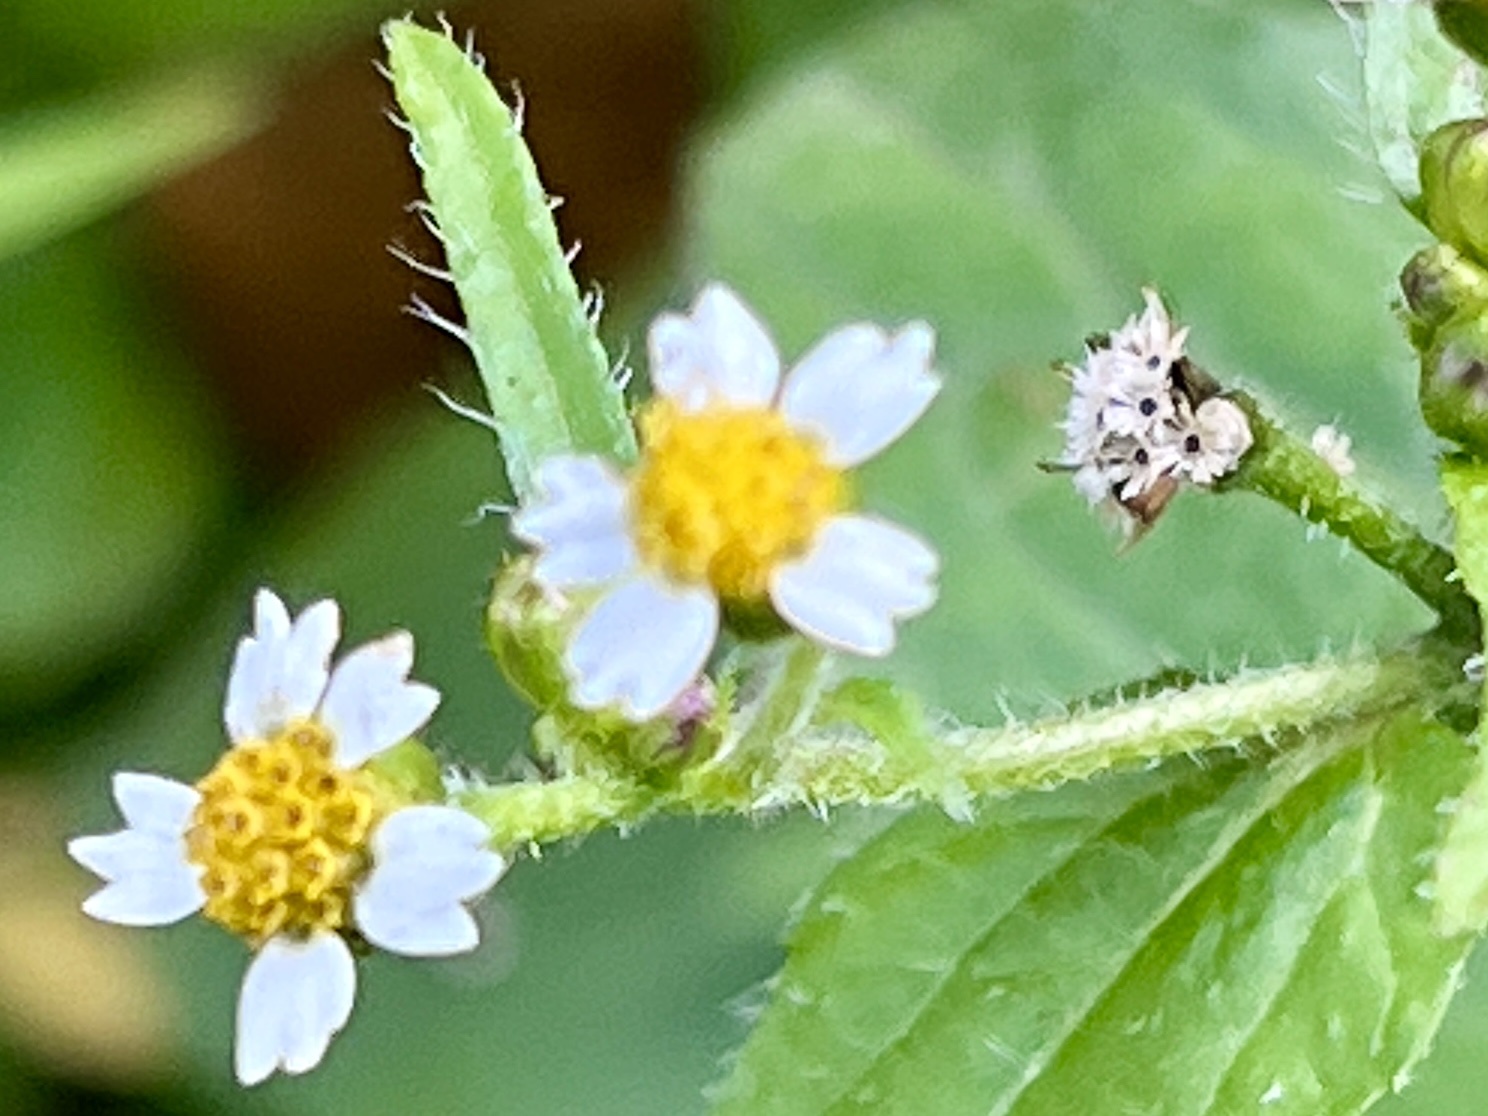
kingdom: Plantae
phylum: Tracheophyta
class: Magnoliopsida
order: Asterales
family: Asteraceae
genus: Galinsoga
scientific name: Galinsoga quadriradiata
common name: Shaggy soldier
